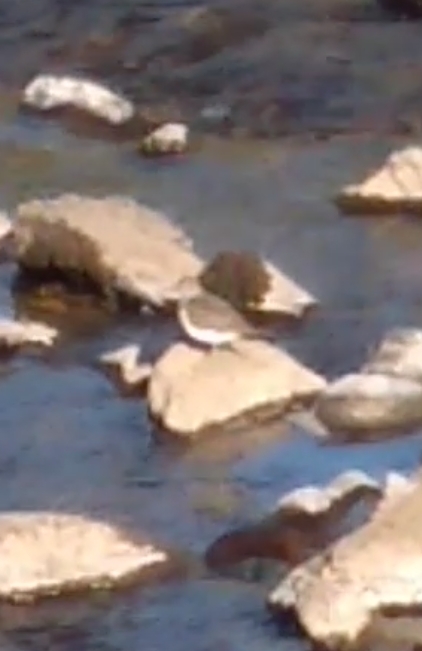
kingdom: Animalia
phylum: Chordata
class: Aves
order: Charadriiformes
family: Scolopacidae
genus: Actitis
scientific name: Actitis hypoleucos
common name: Common sandpiper
